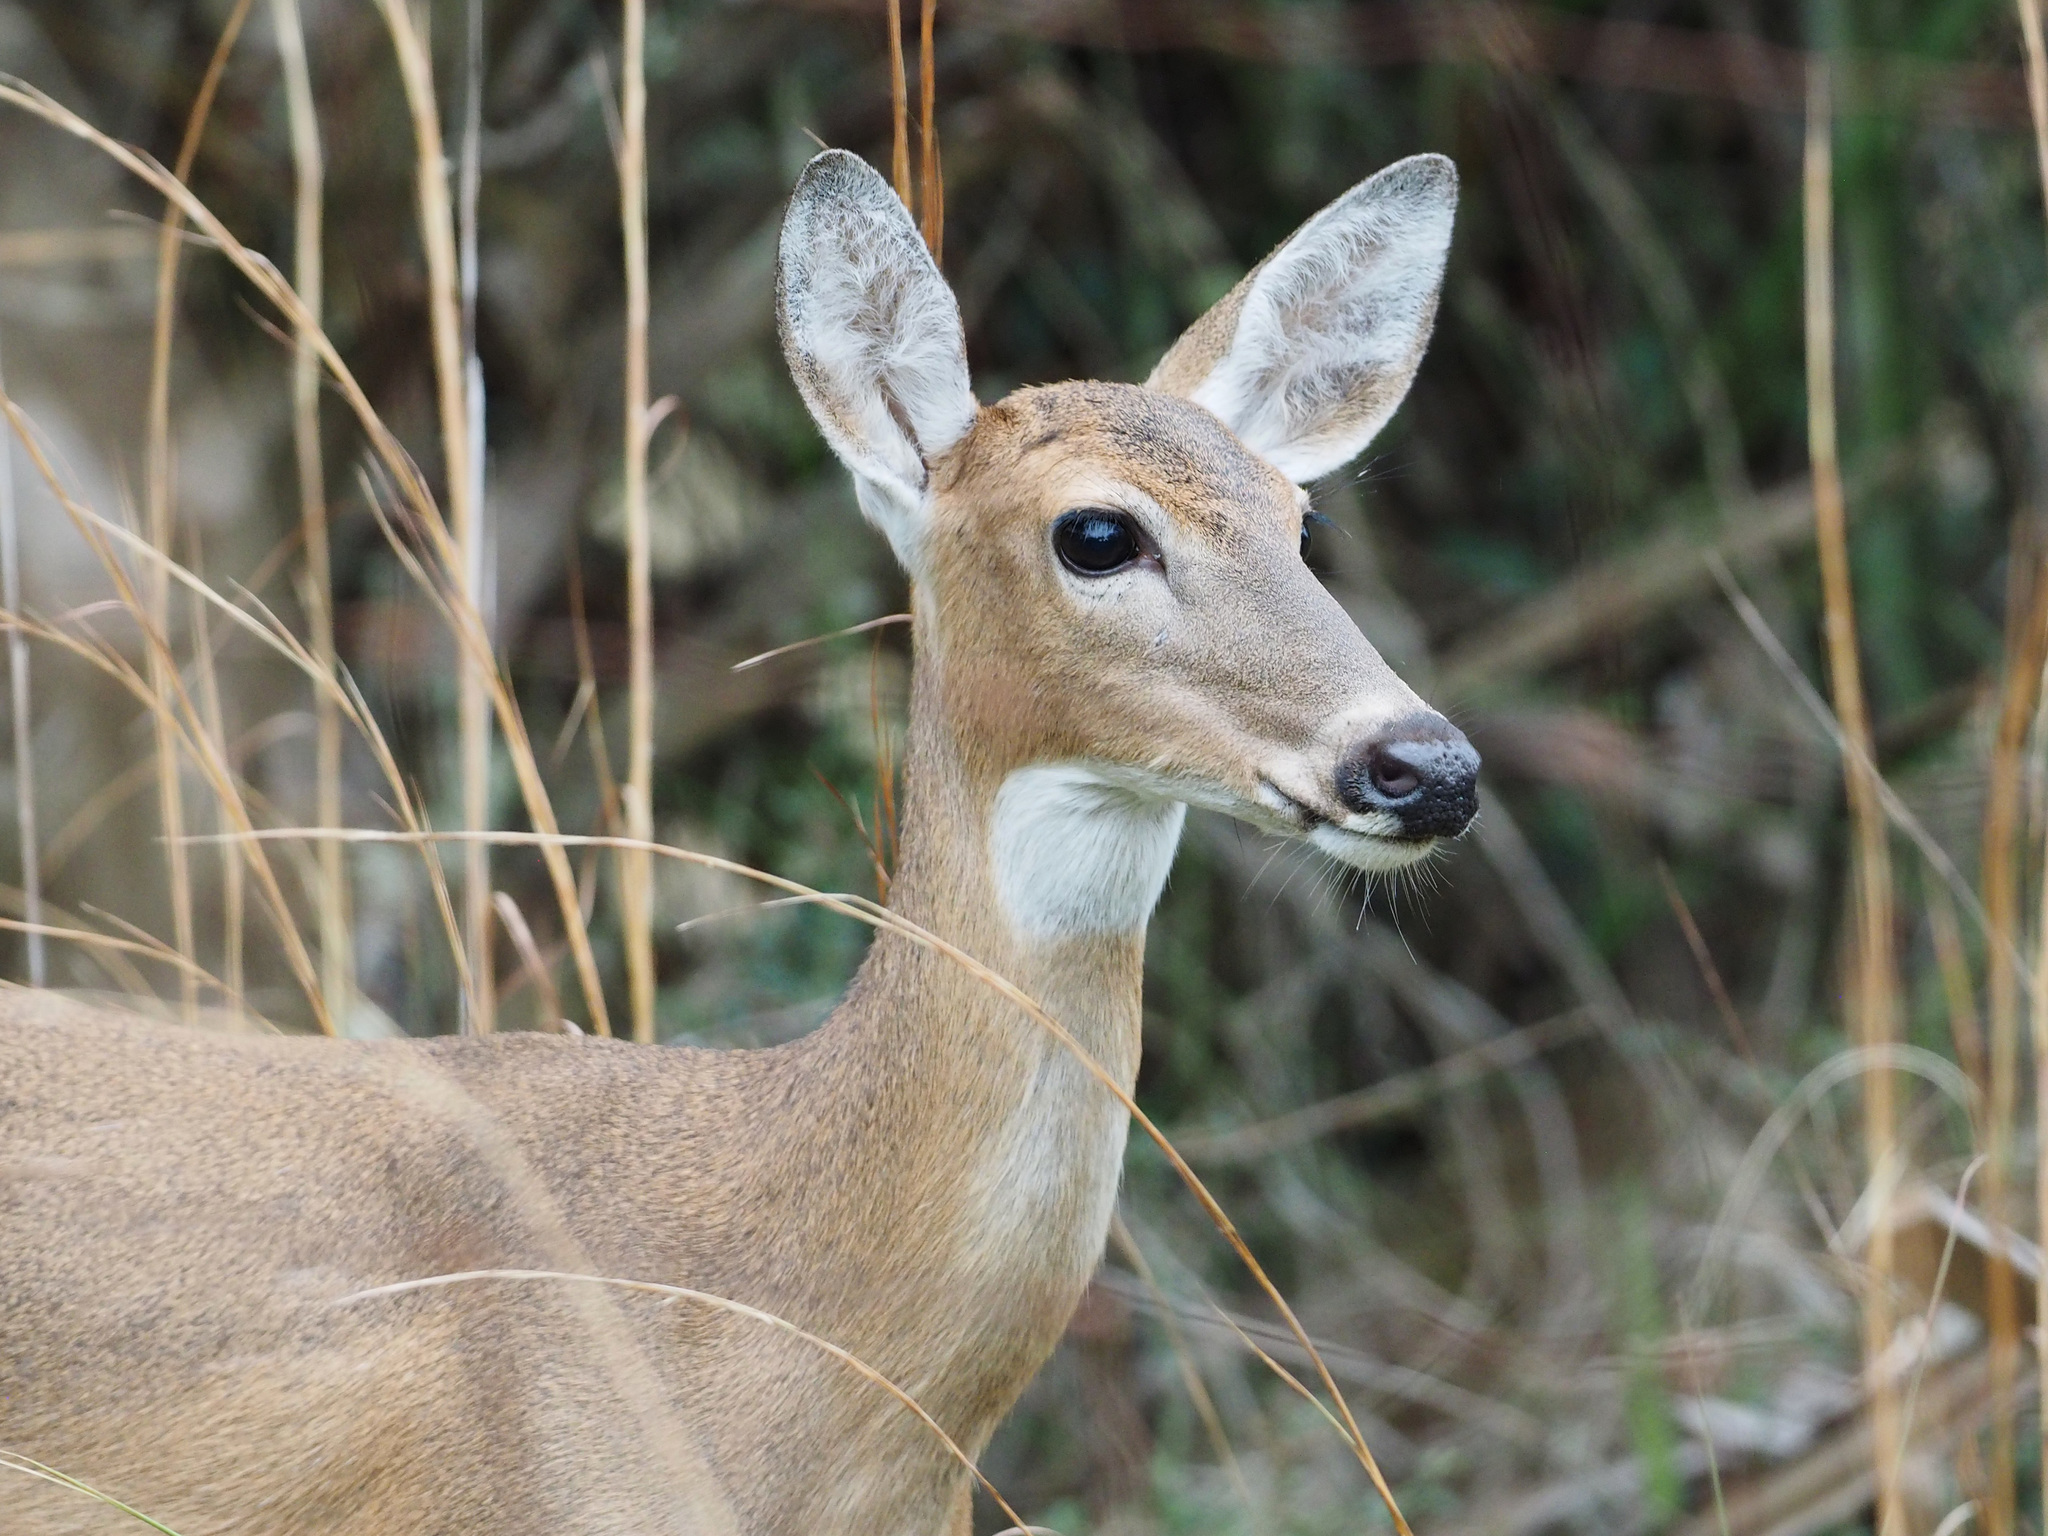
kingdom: Animalia
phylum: Chordata
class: Mammalia
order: Artiodactyla
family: Cervidae
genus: Odocoileus
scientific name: Odocoileus virginianus
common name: White-tailed deer
